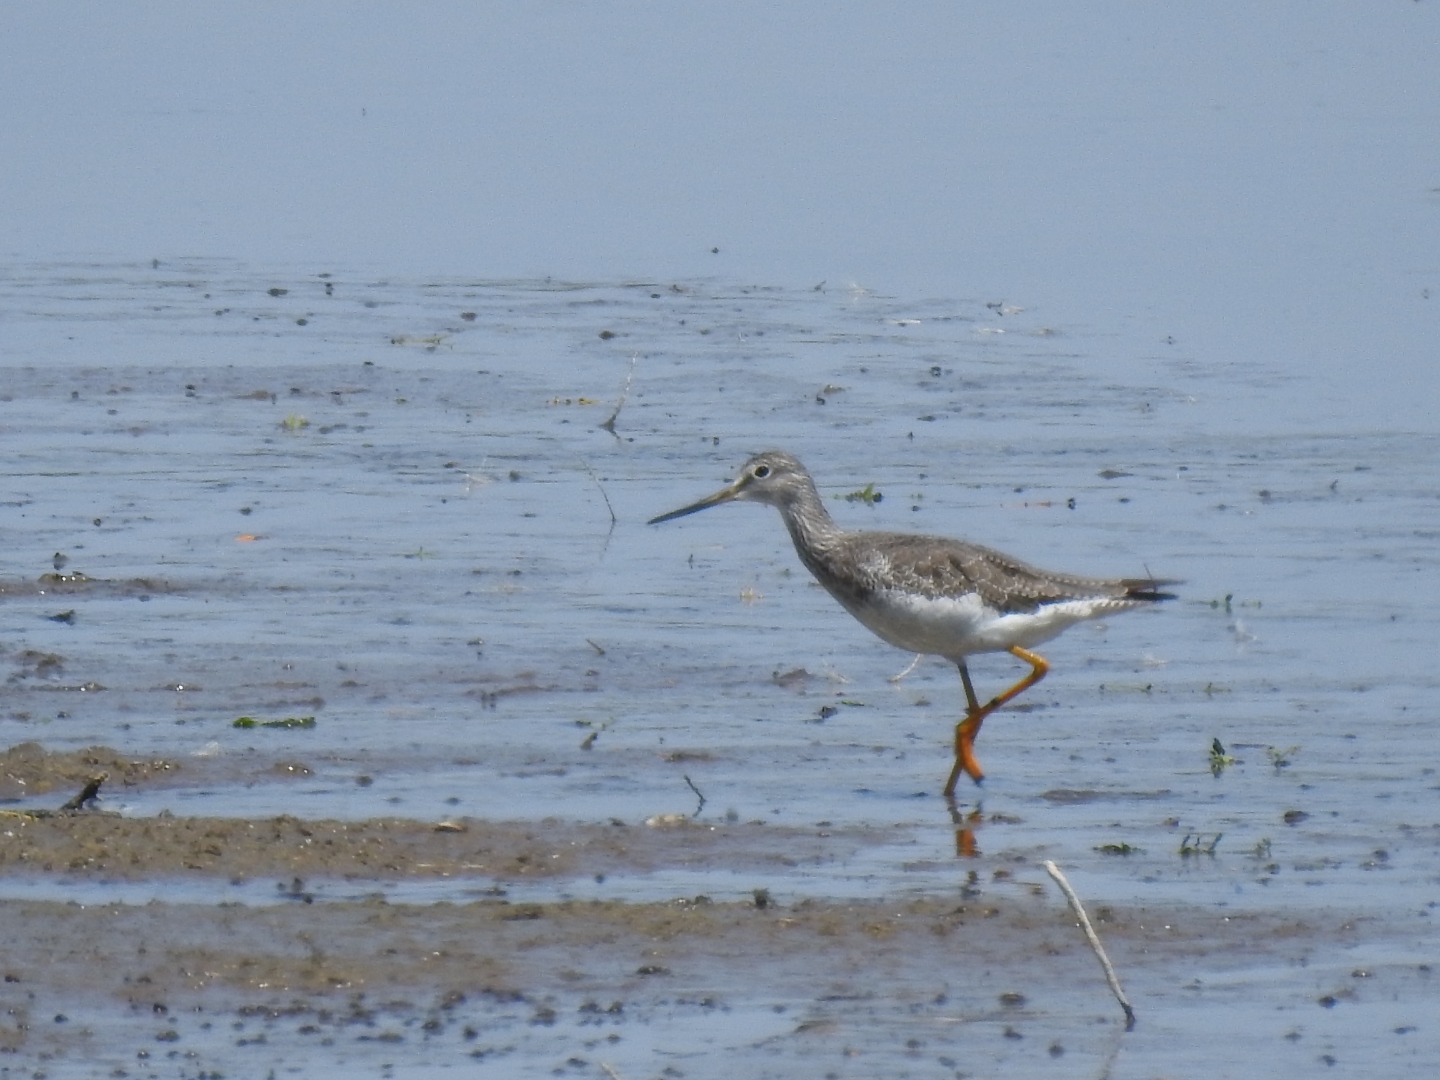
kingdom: Animalia
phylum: Chordata
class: Aves
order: Charadriiformes
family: Scolopacidae
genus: Tringa
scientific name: Tringa melanoleuca
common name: Greater yellowlegs
